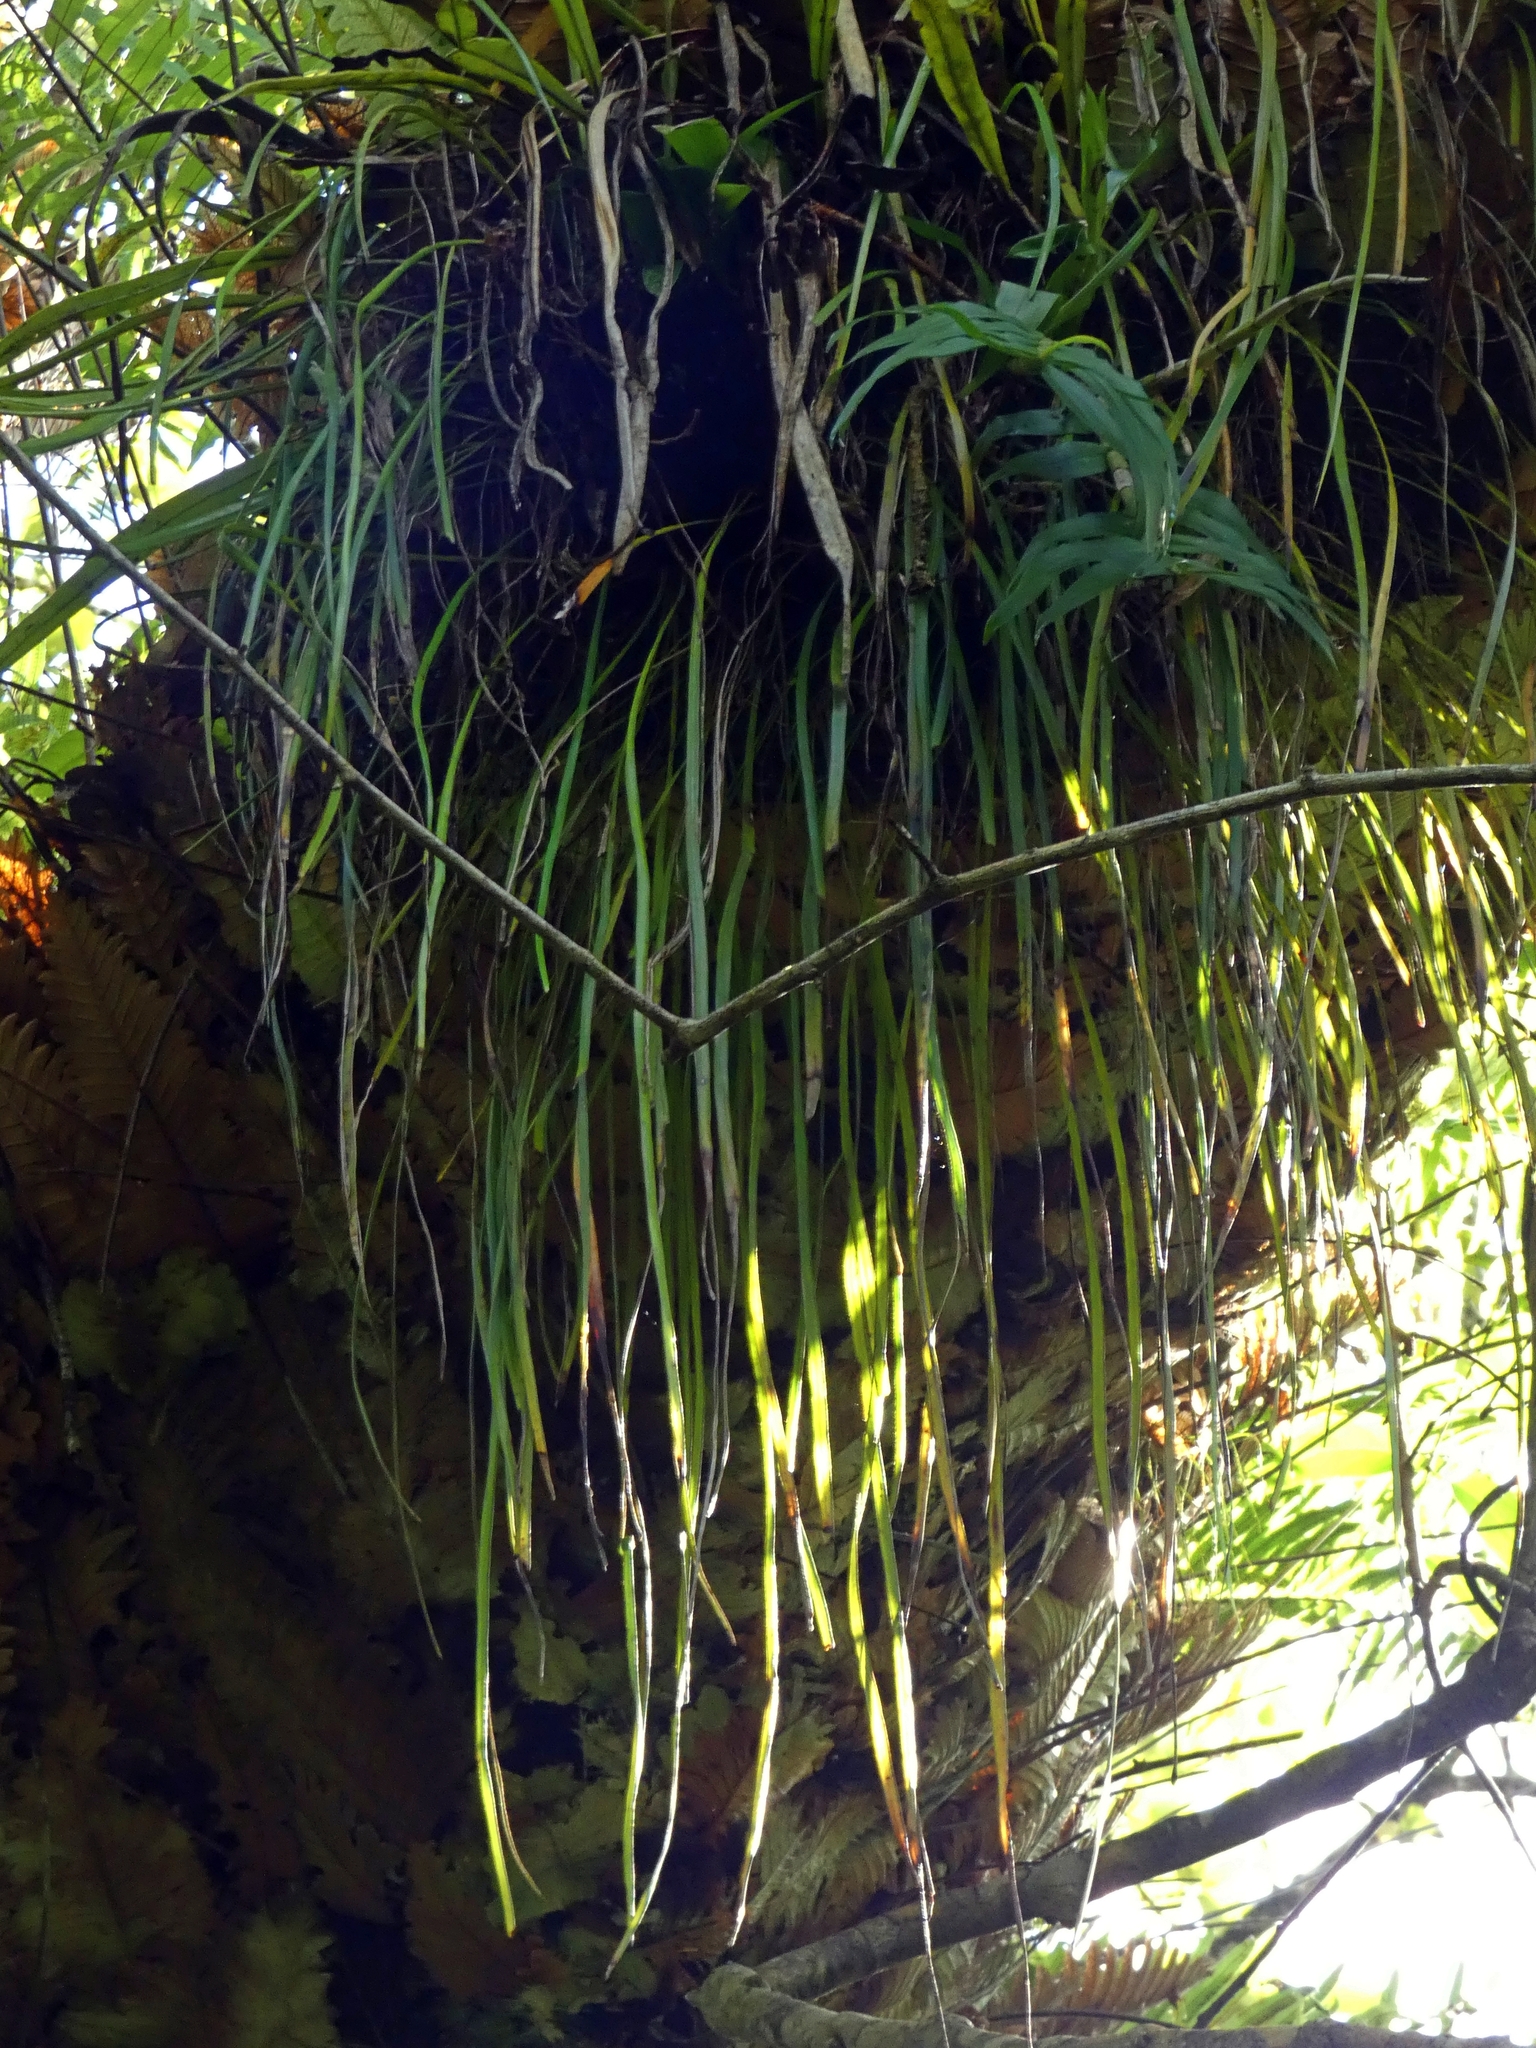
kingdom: Plantae
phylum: Tracheophyta
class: Polypodiopsida
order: Polypodiales
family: Pteridaceae
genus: Haplopteris
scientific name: Haplopteris elongata
